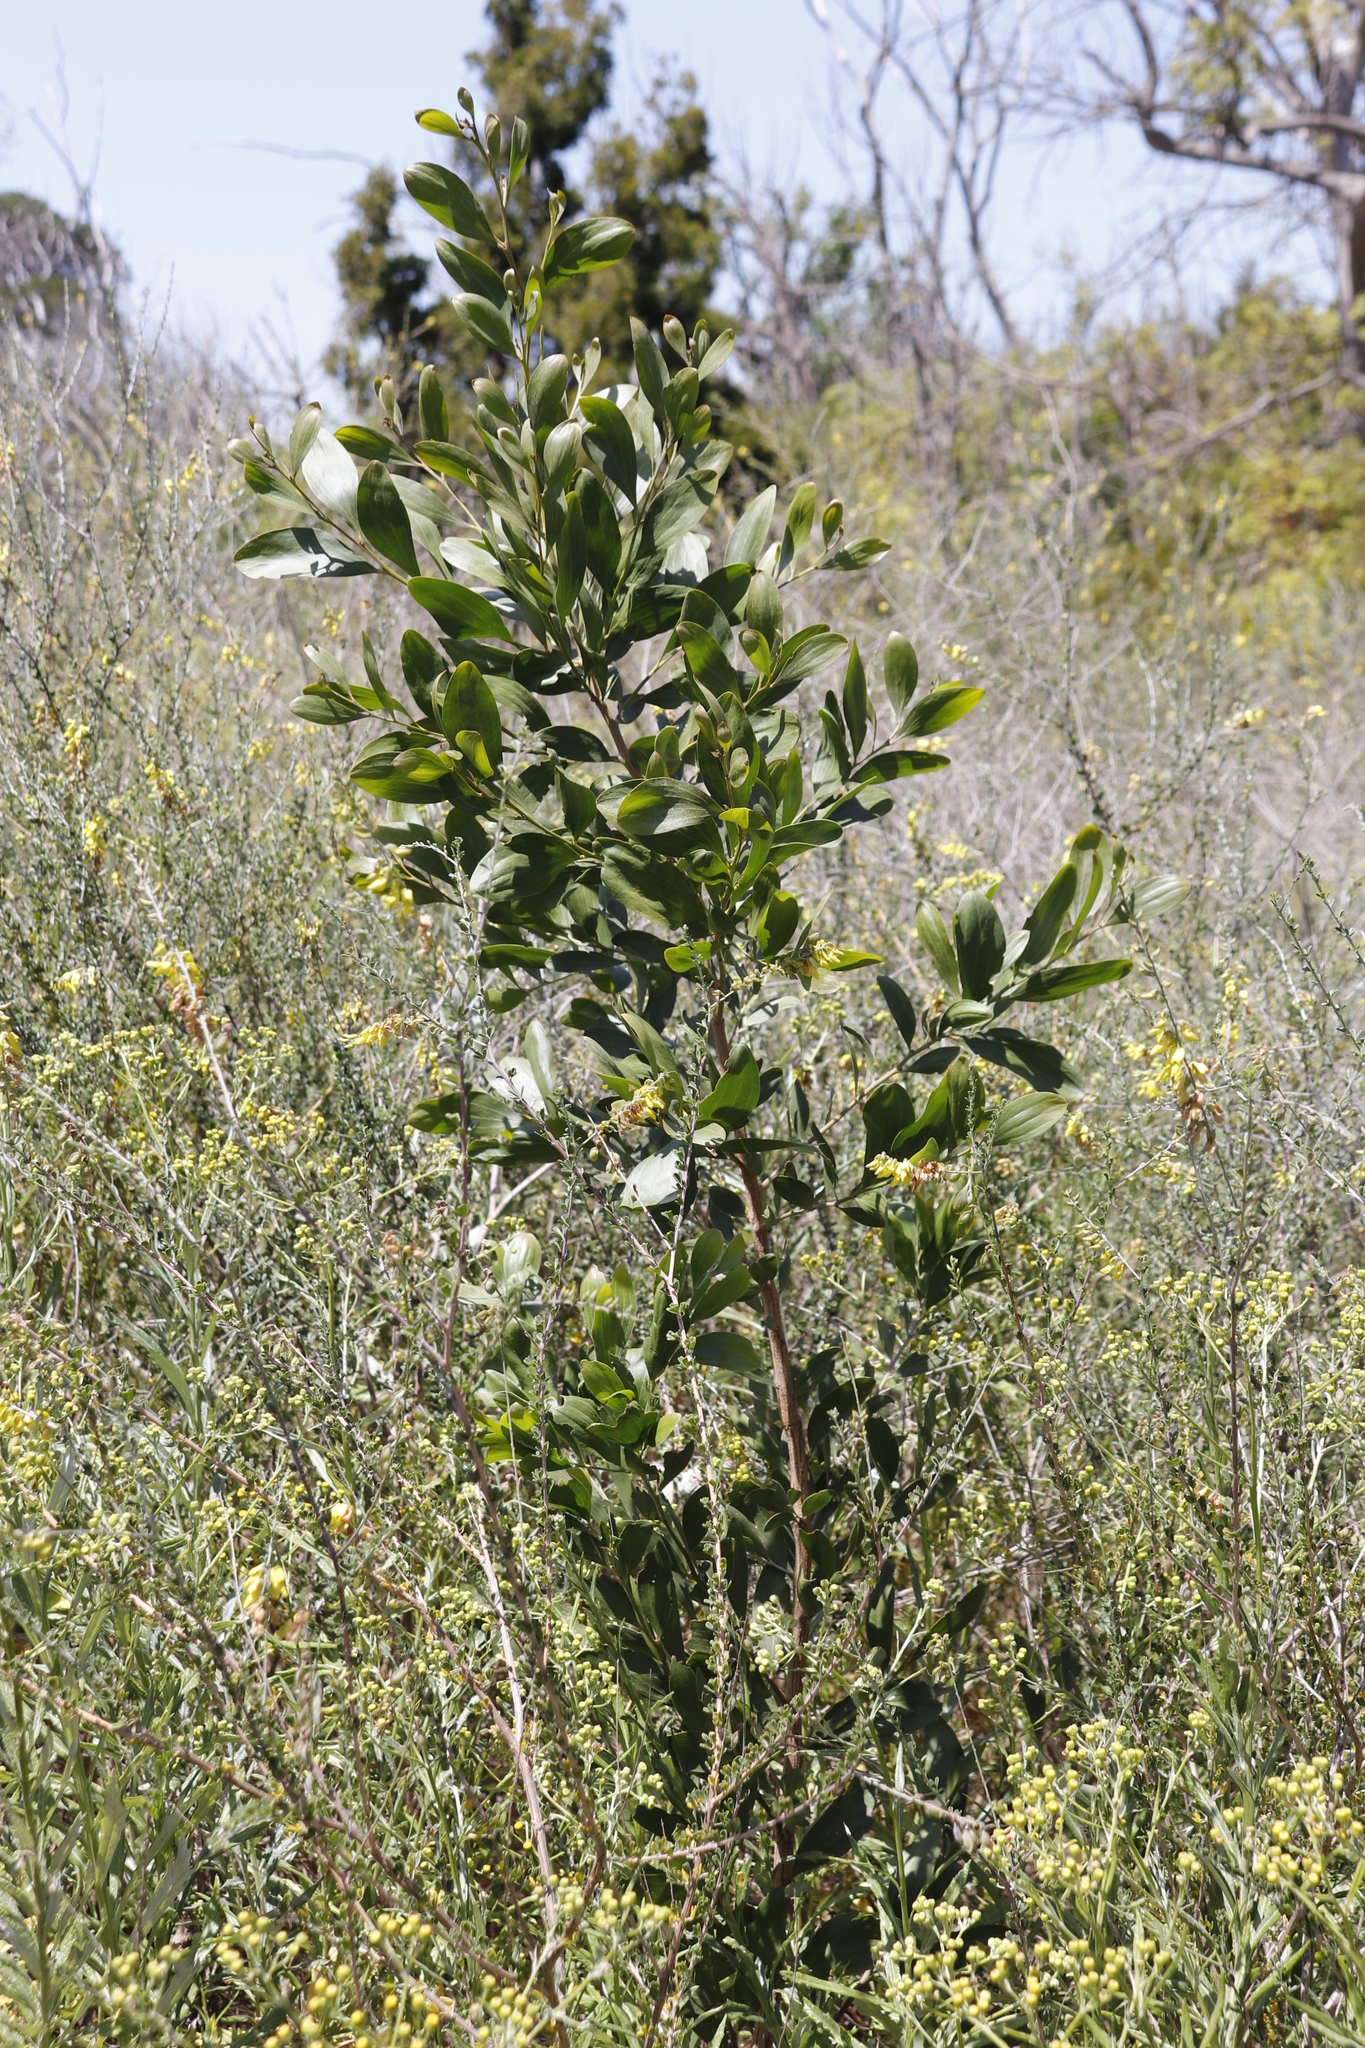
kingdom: Plantae
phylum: Tracheophyta
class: Magnoliopsida
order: Fabales
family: Fabaceae
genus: Acacia
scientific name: Acacia melanoxylon
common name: Blackwood
